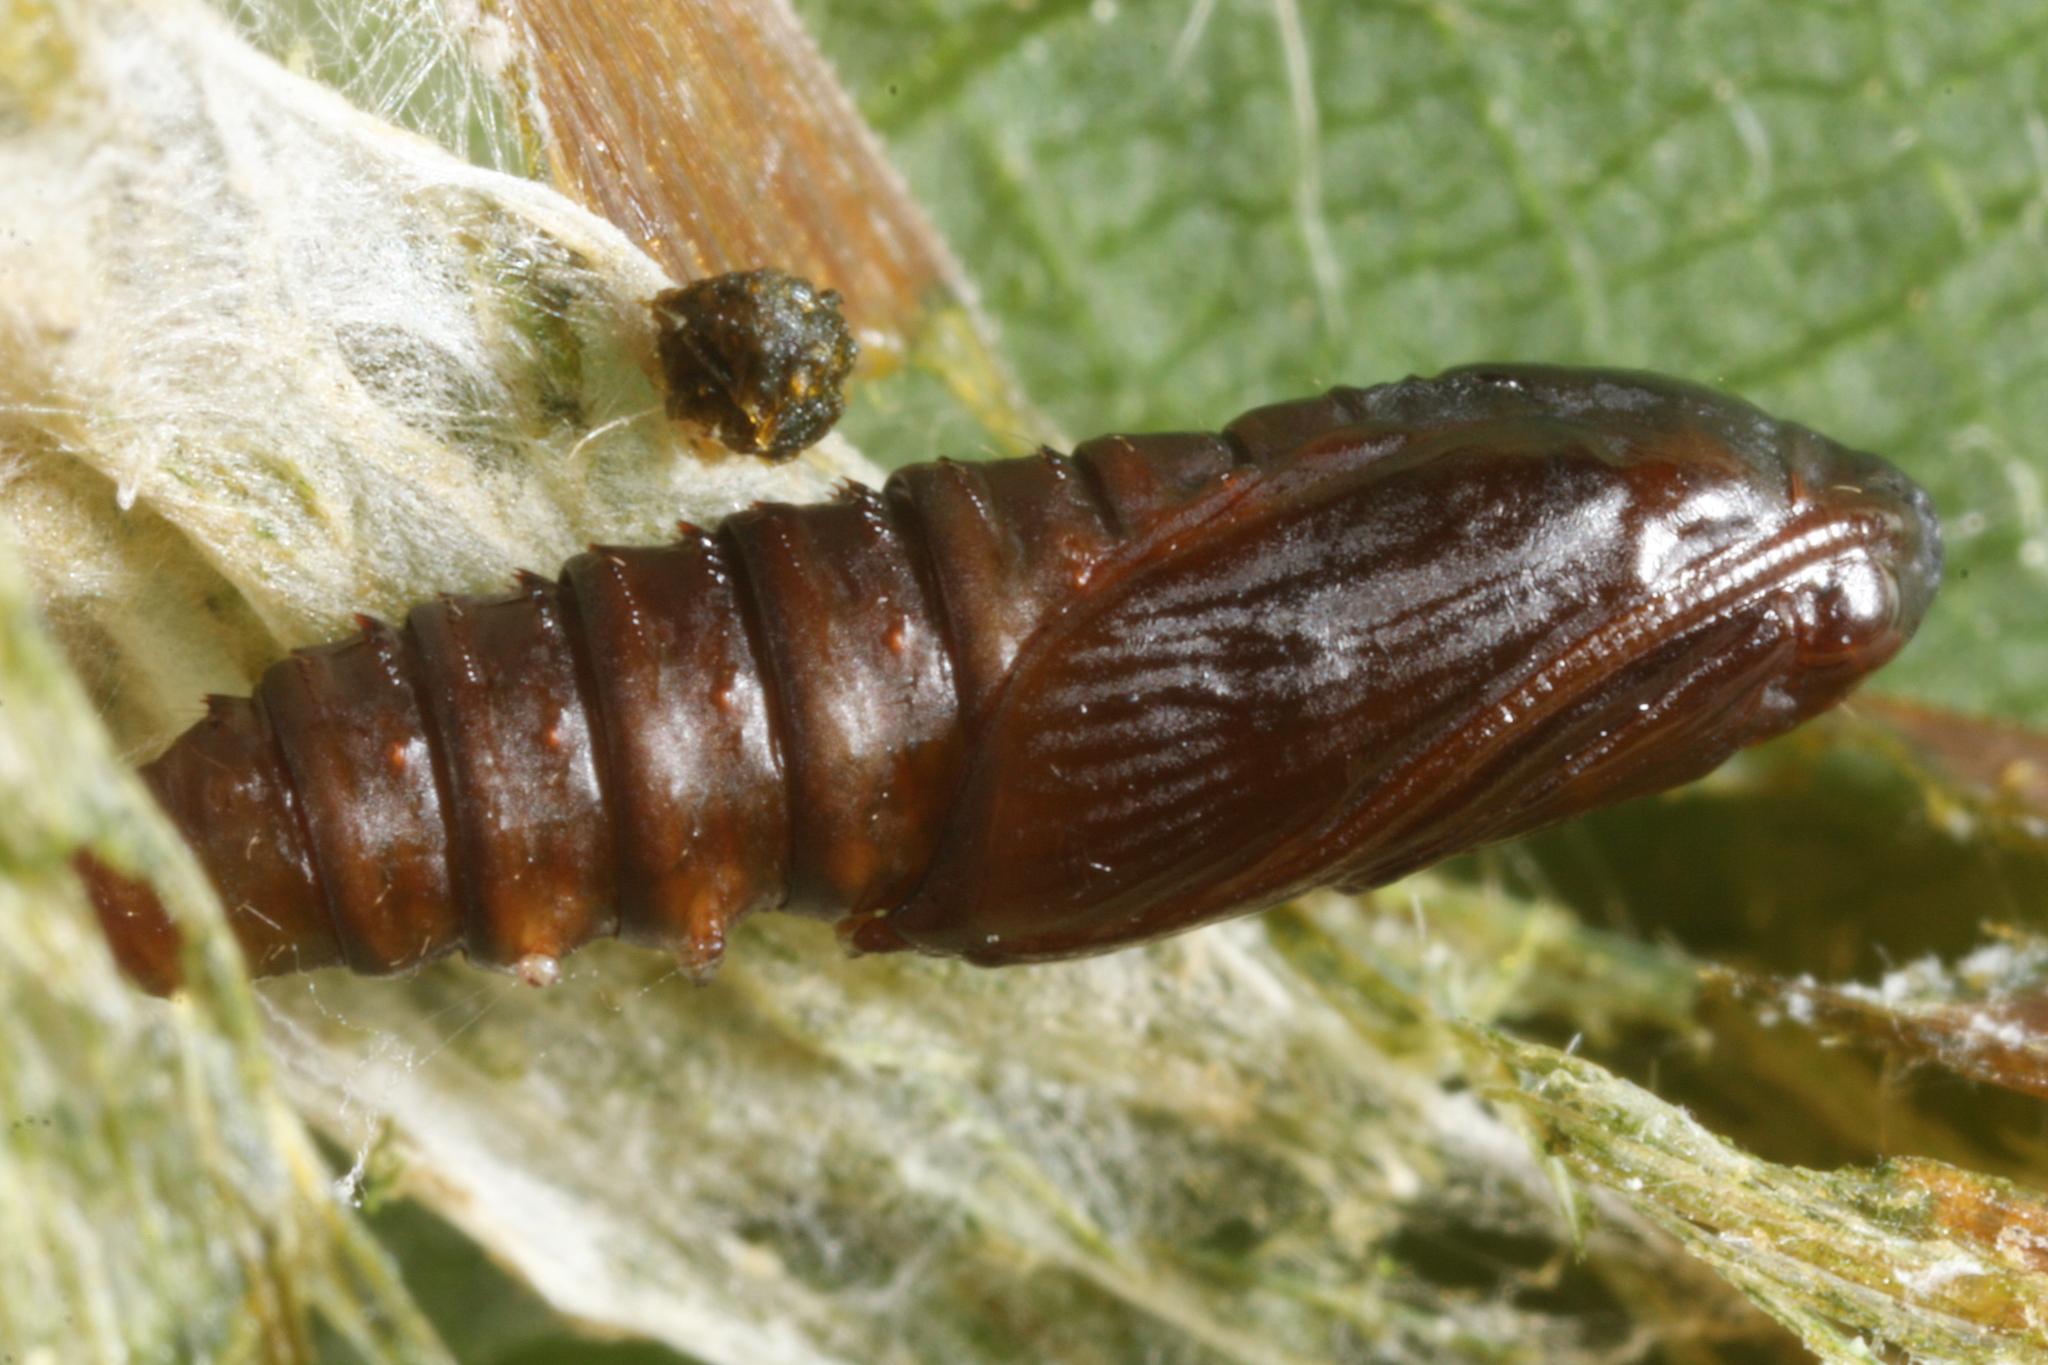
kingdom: Animalia
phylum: Arthropoda
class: Insecta
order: Lepidoptera
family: Tortricidae
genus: Syricoris
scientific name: Syricoris lacunana
